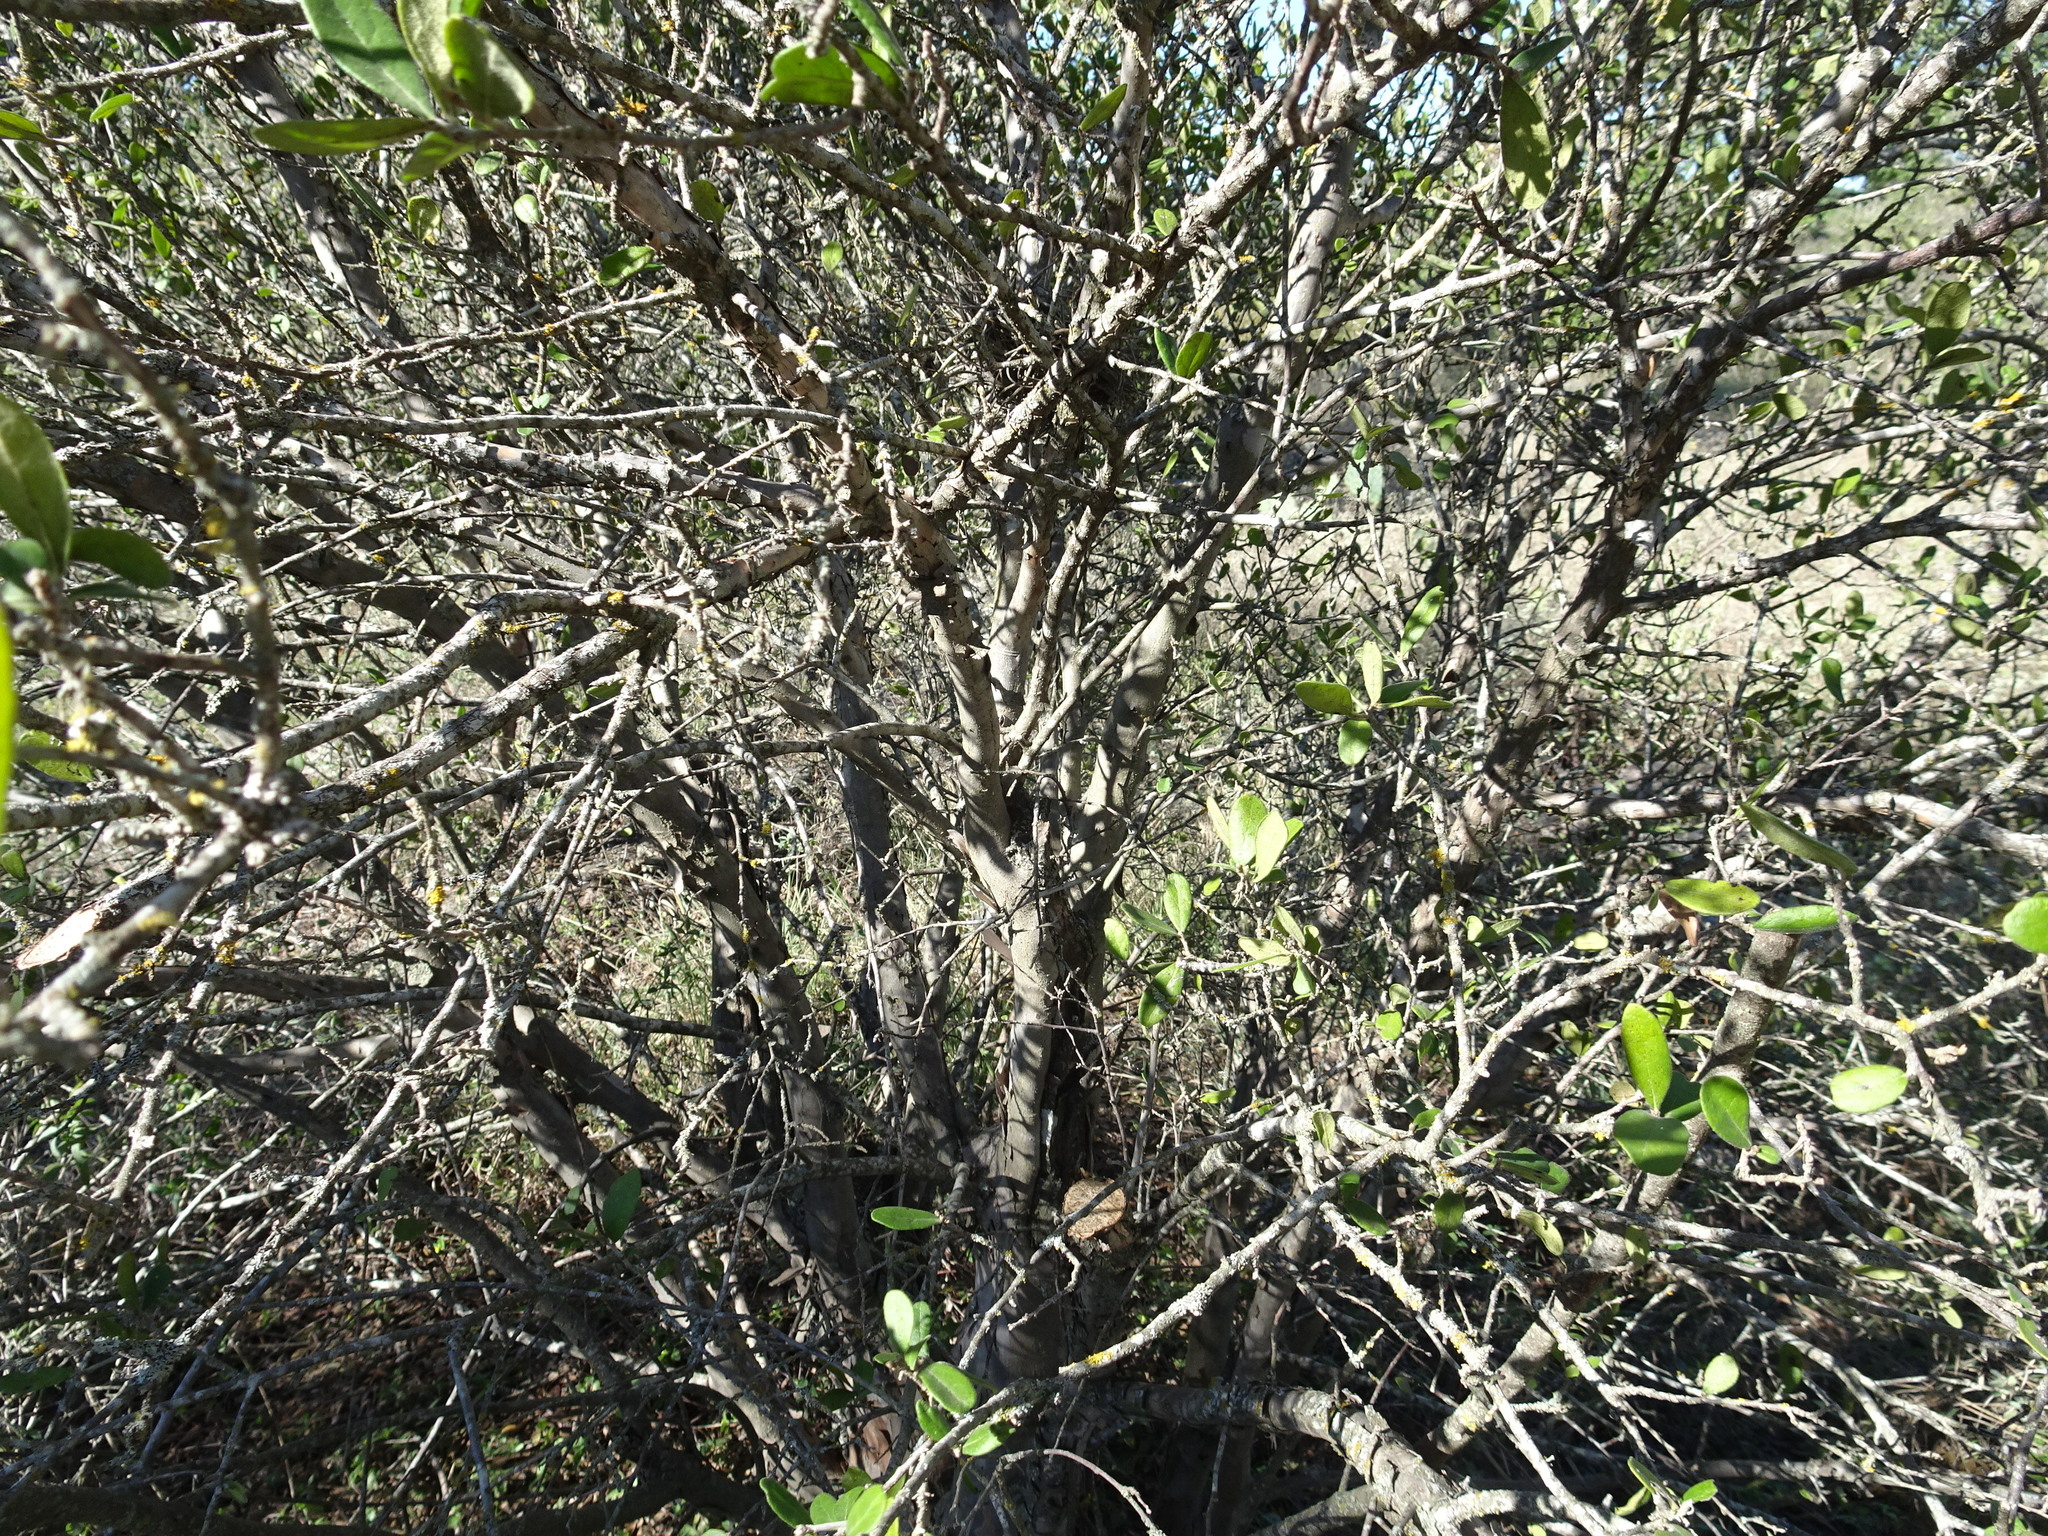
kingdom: Plantae
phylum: Tracheophyta
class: Magnoliopsida
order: Ericales
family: Ebenaceae
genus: Diospyros
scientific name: Diospyros texana
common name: Texas persimmon
